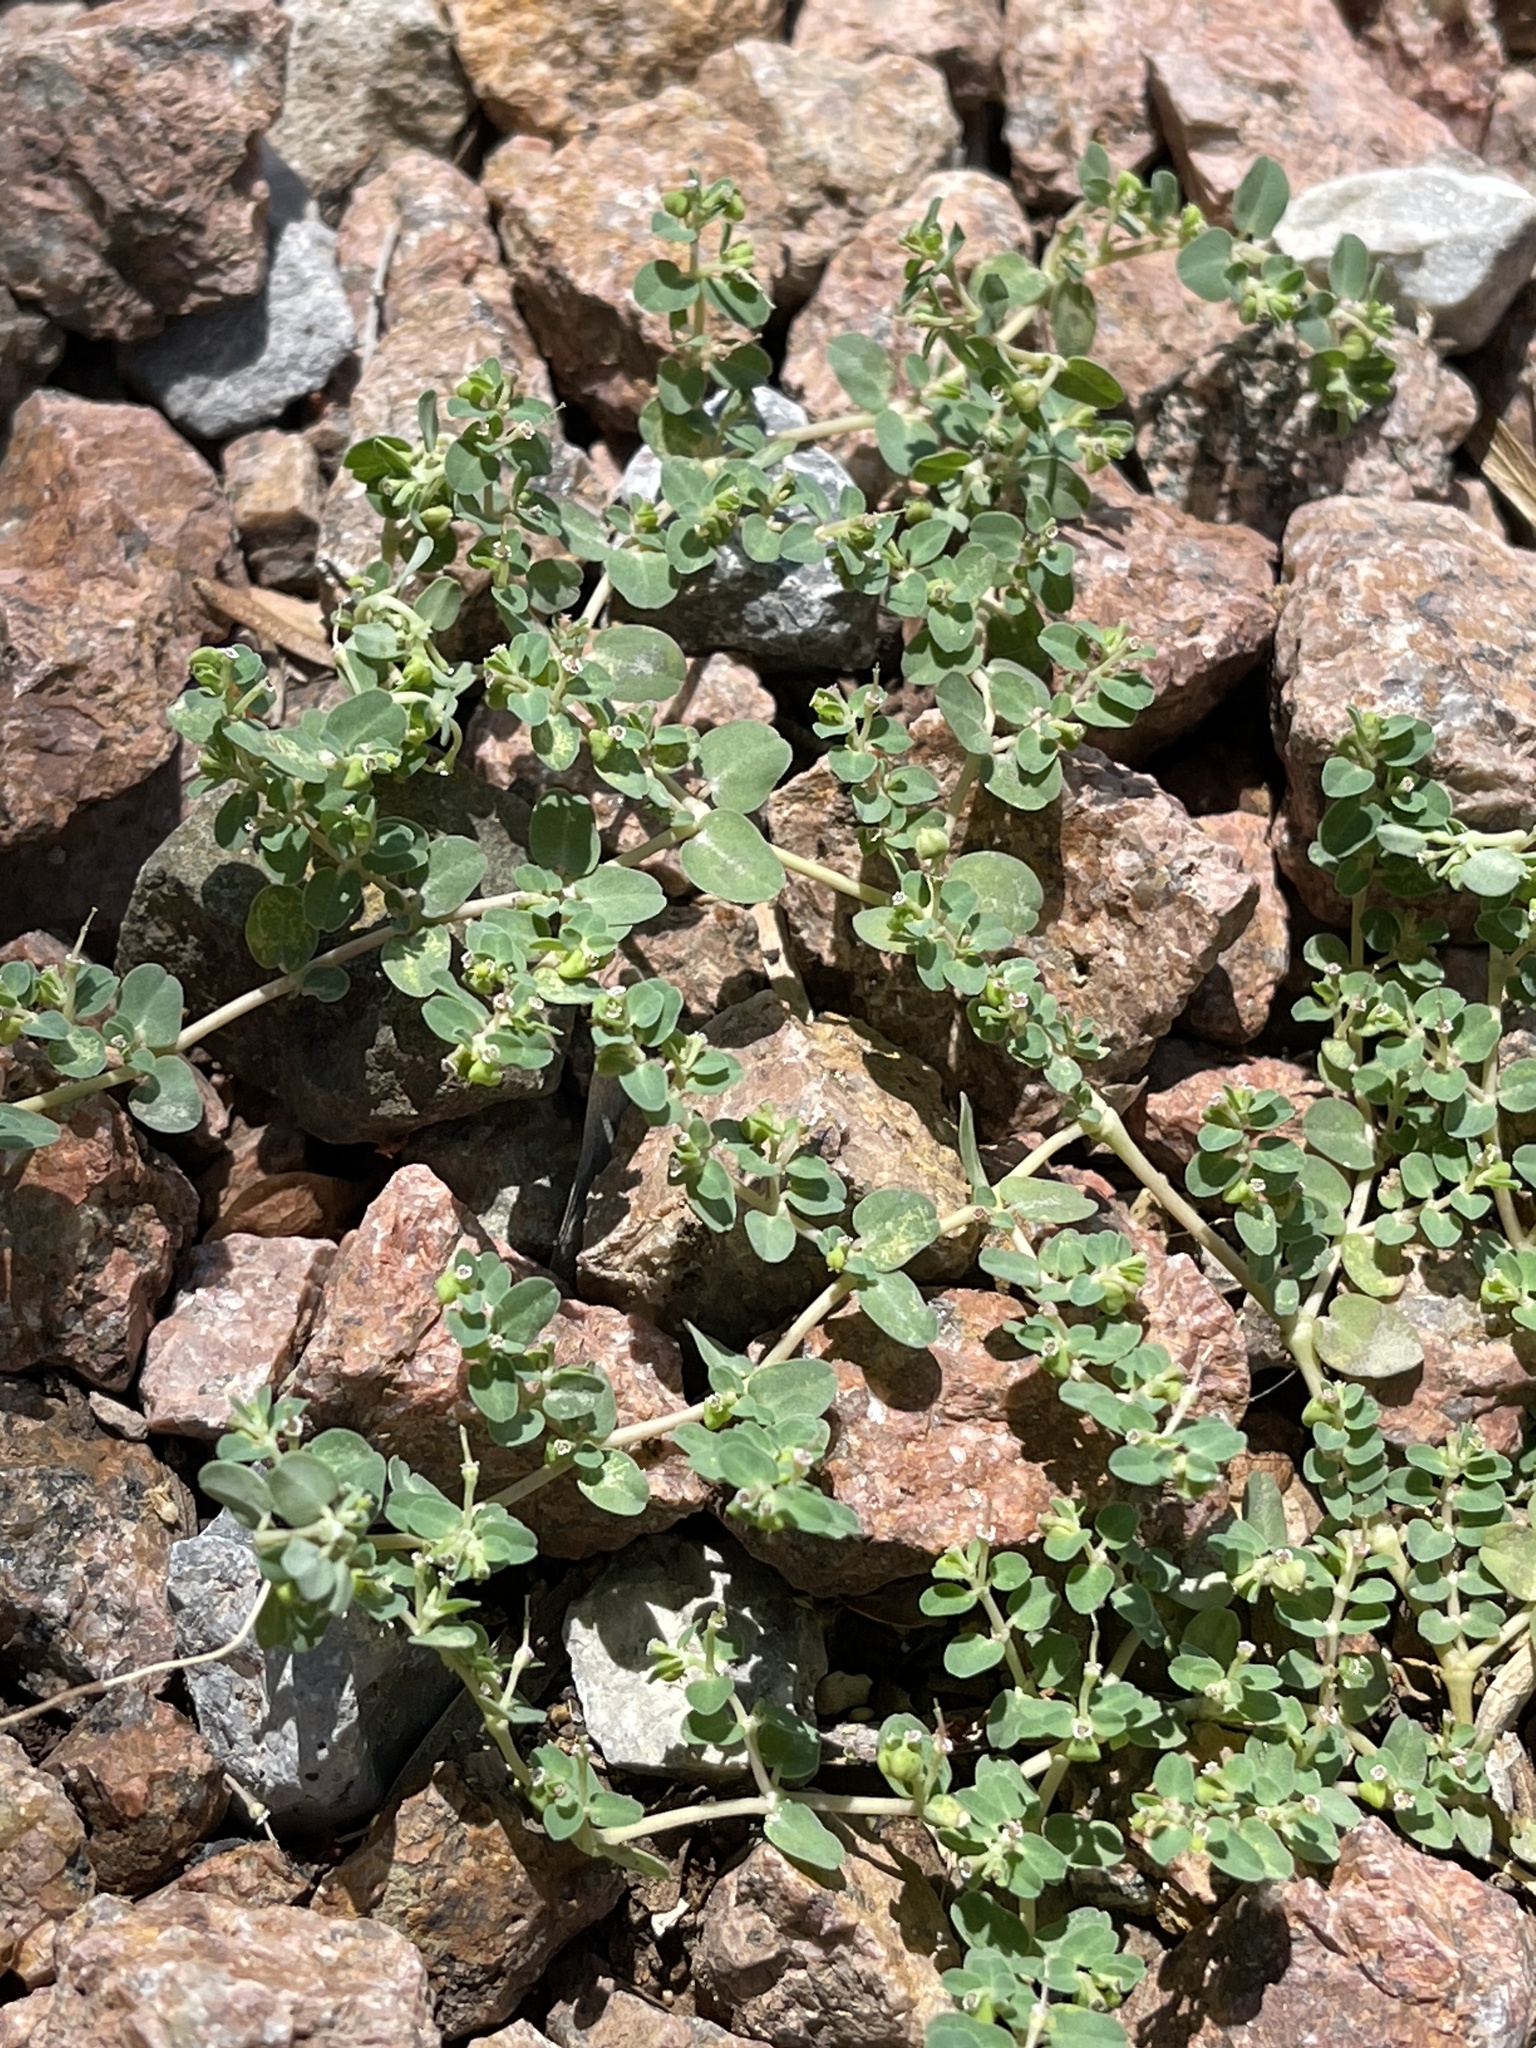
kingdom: Plantae
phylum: Tracheophyta
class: Magnoliopsida
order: Malpighiales
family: Euphorbiaceae
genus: Euphorbia
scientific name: Euphorbia serpens
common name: Matted sandmat
